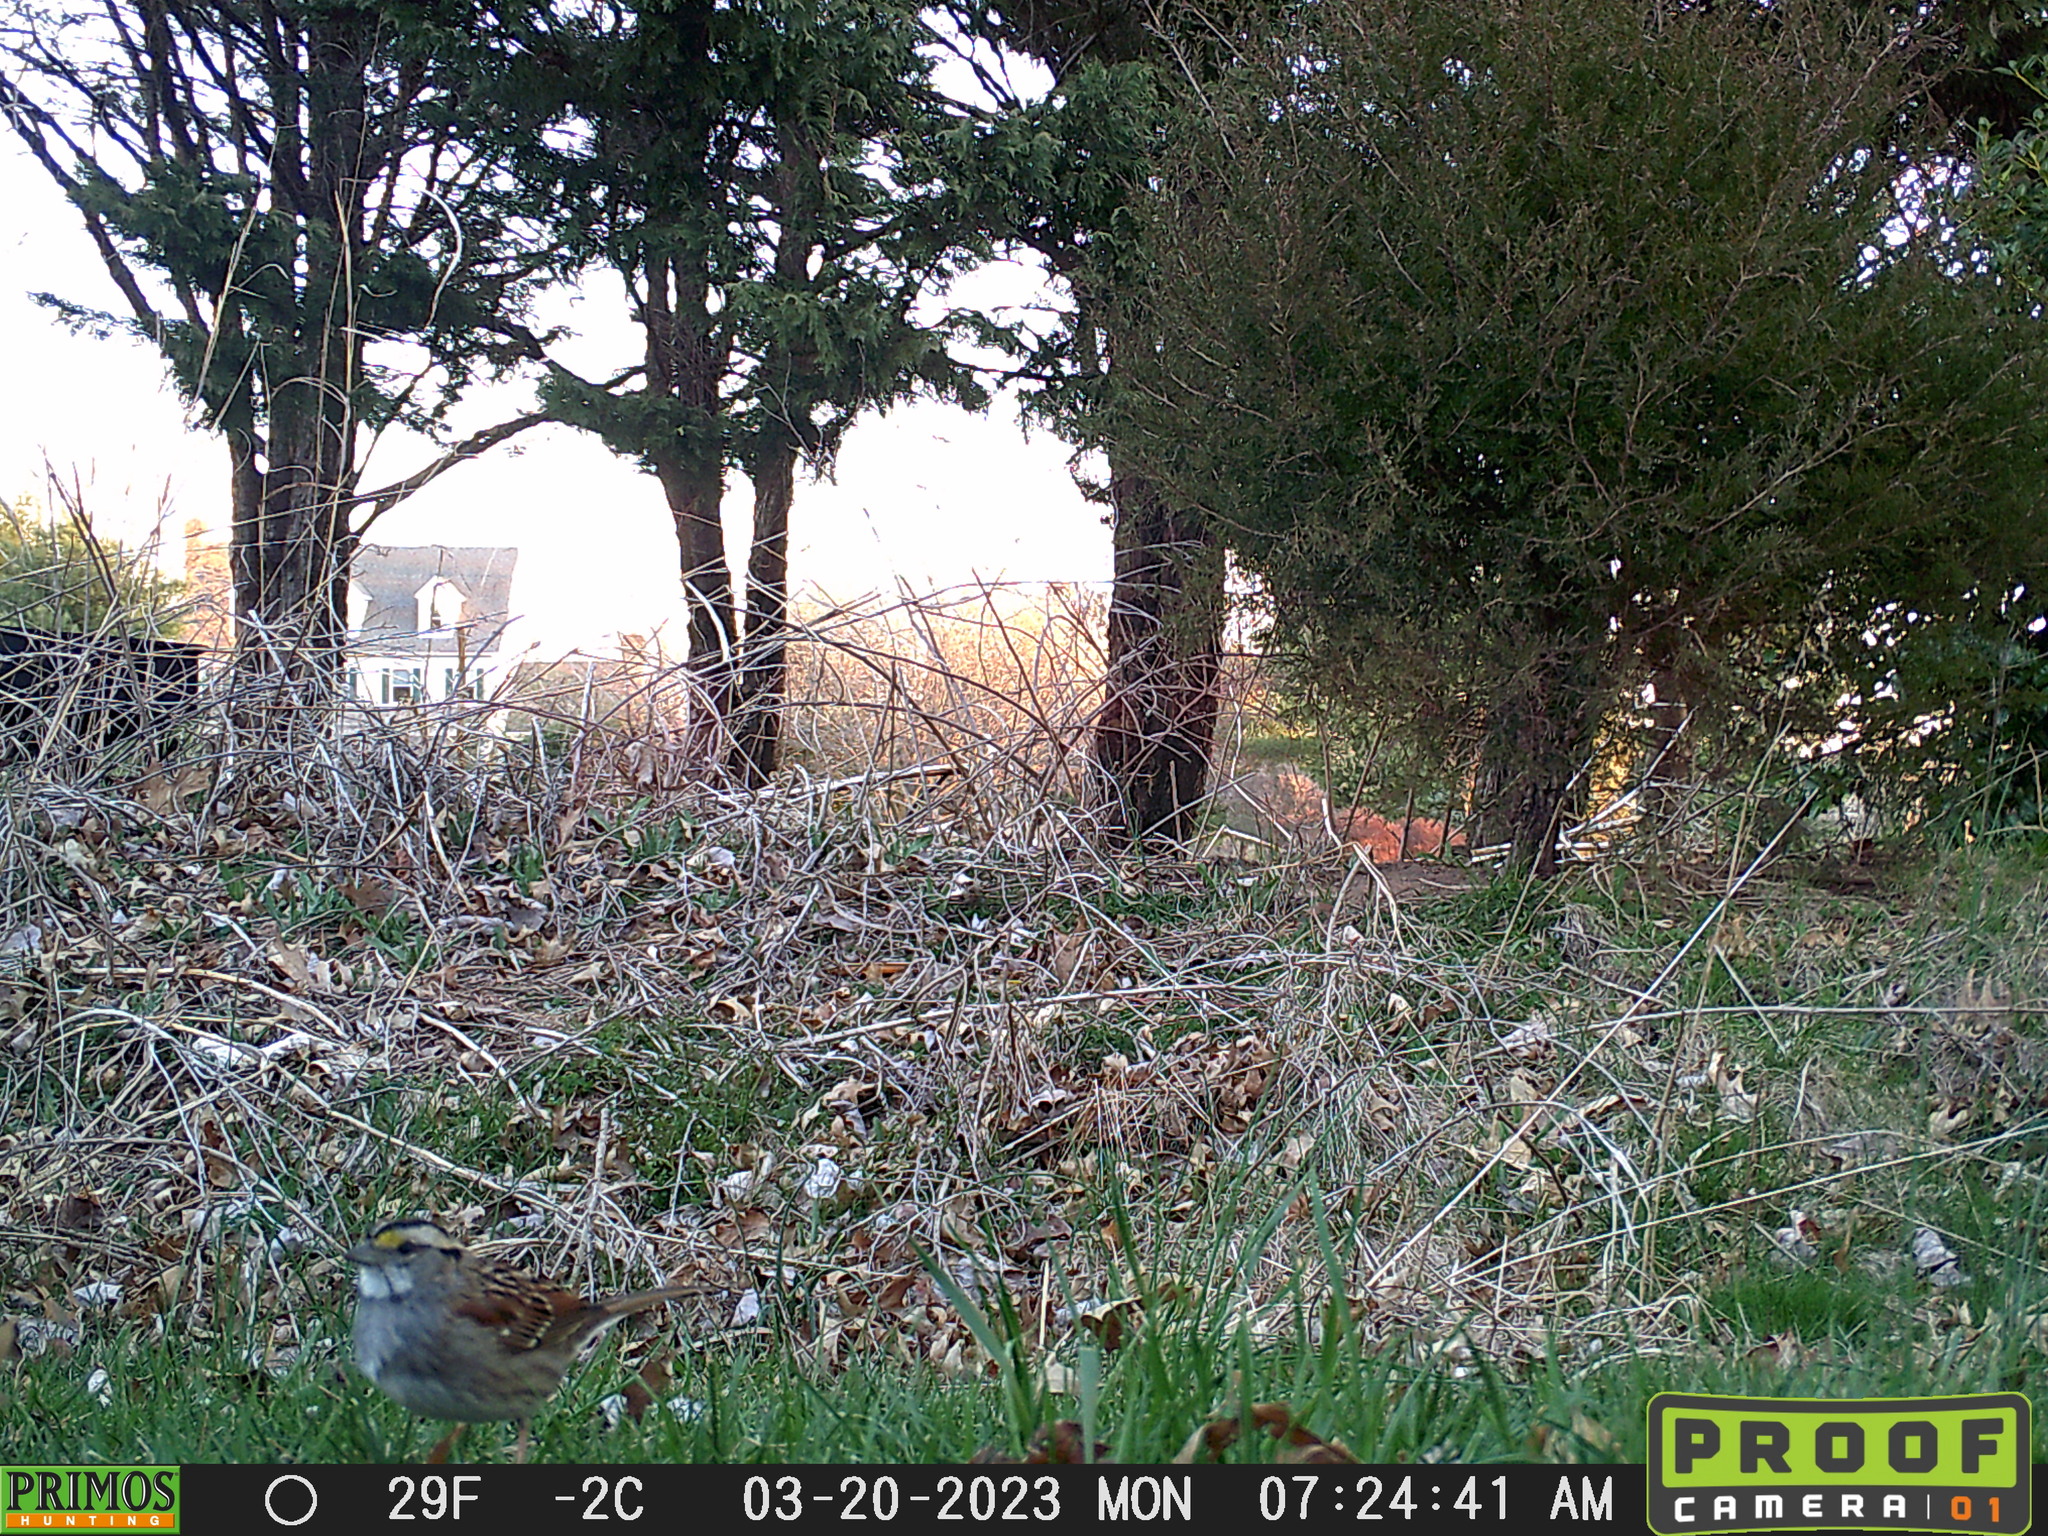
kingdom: Animalia
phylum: Chordata
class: Aves
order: Passeriformes
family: Passerellidae
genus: Zonotrichia
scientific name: Zonotrichia albicollis
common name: White-throated sparrow
